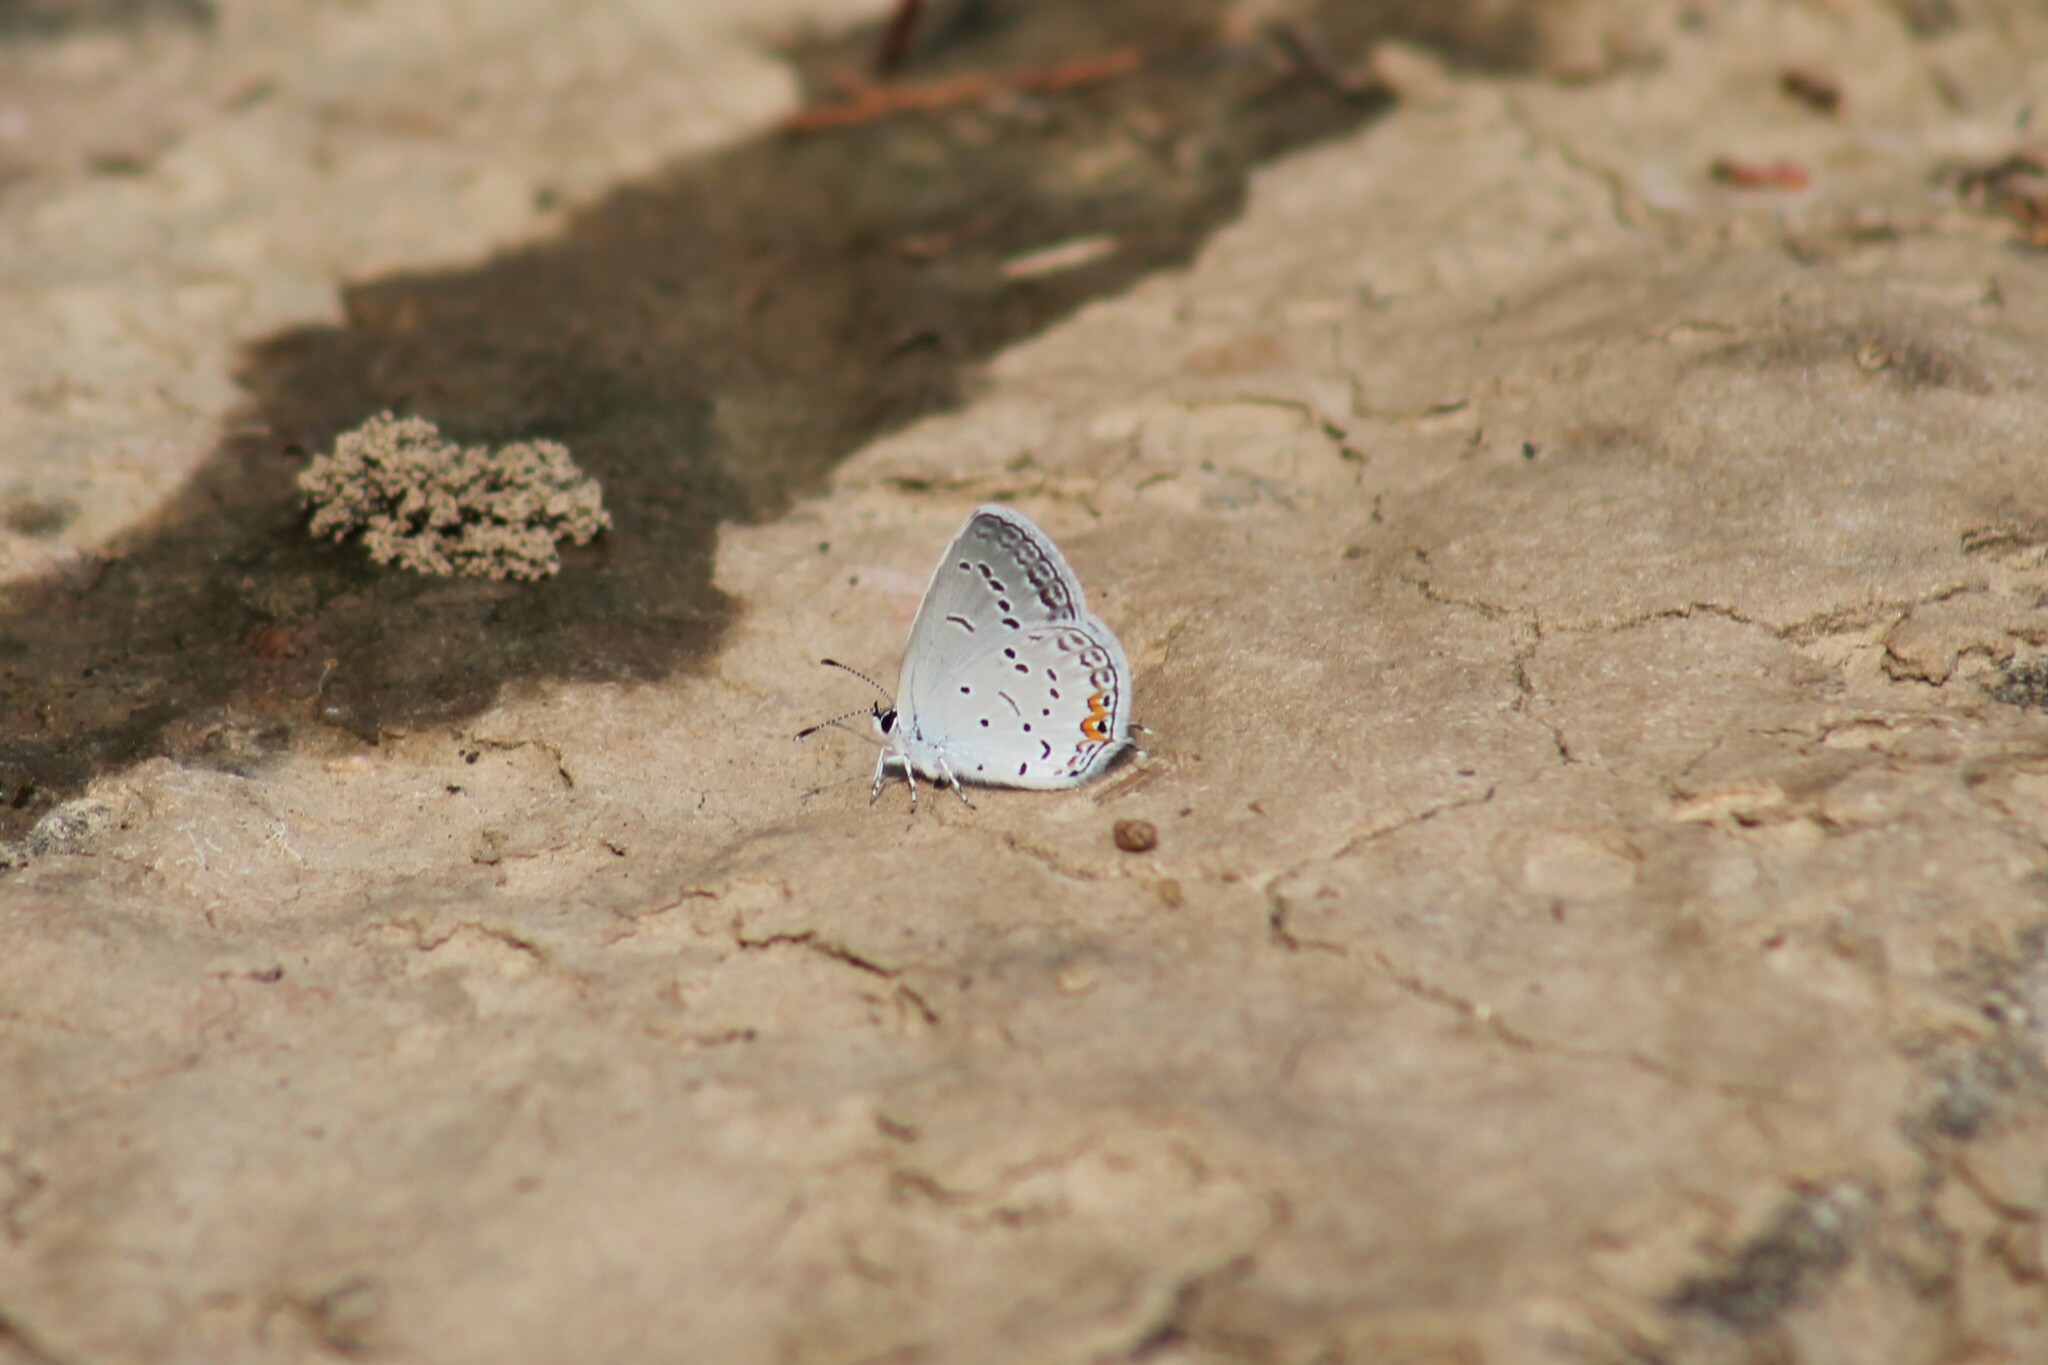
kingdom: Animalia
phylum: Arthropoda
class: Insecta
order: Lepidoptera
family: Lycaenidae
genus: Elkalyce
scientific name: Elkalyce comyntas
